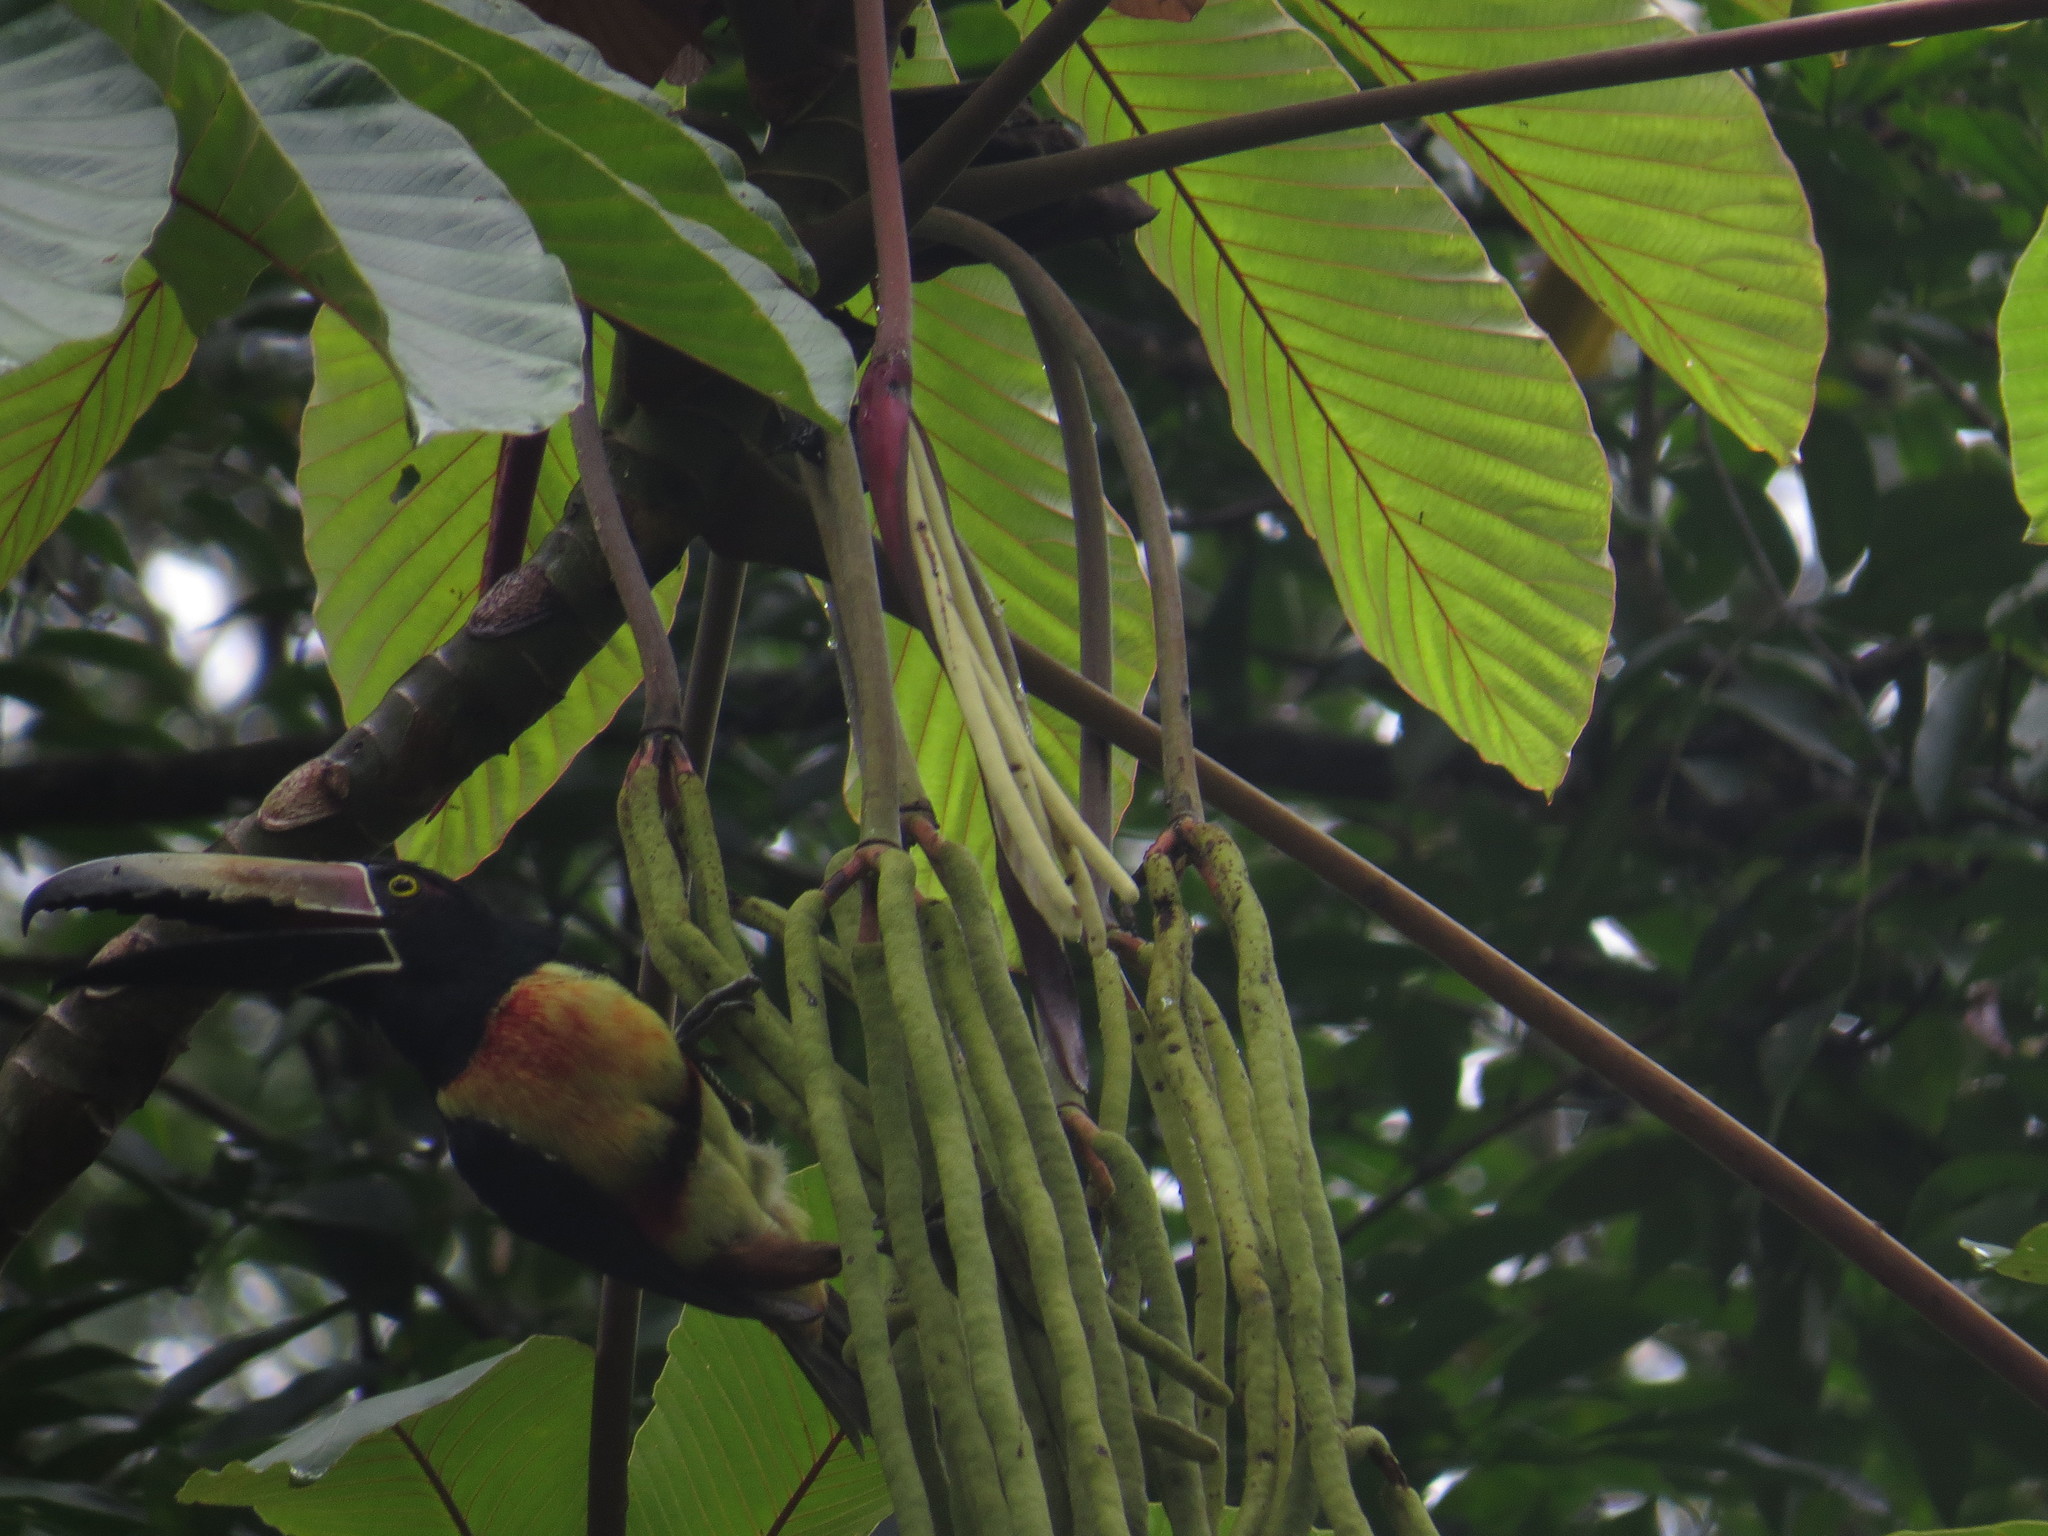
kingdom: Animalia
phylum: Chordata
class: Aves
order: Piciformes
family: Ramphastidae
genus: Pteroglossus
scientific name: Pteroglossus torquatus
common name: Collared aracari
